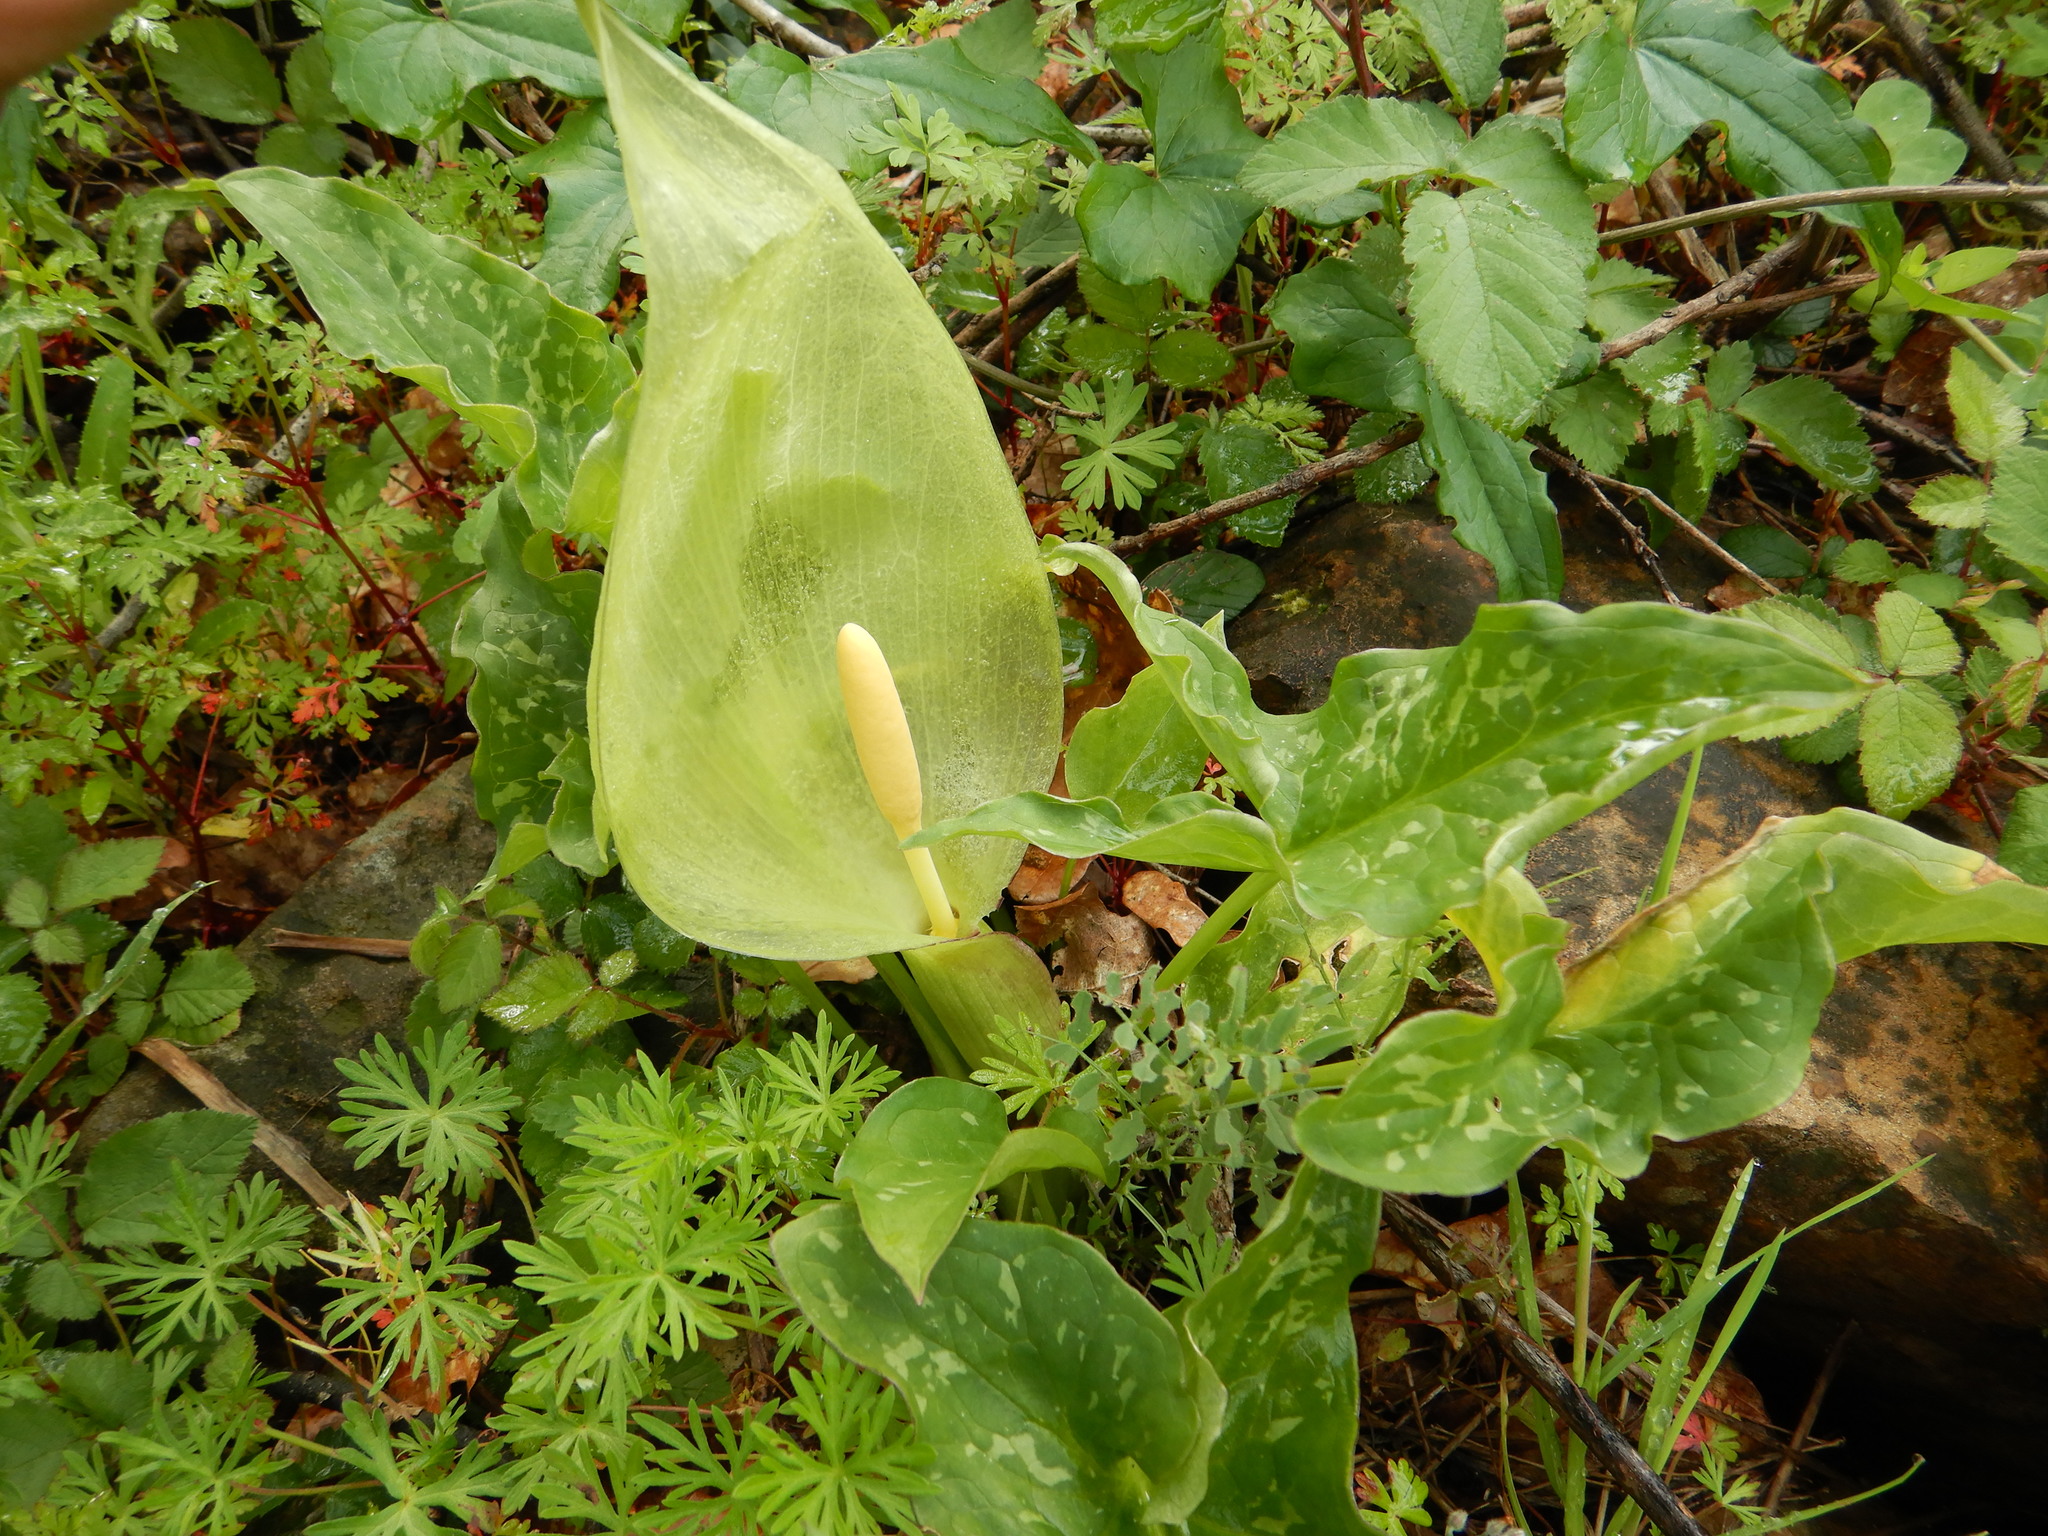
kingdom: Plantae
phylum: Tracheophyta
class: Liliopsida
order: Alismatales
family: Araceae
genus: Arum
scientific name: Arum italicum
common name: Italian lords-and-ladies
